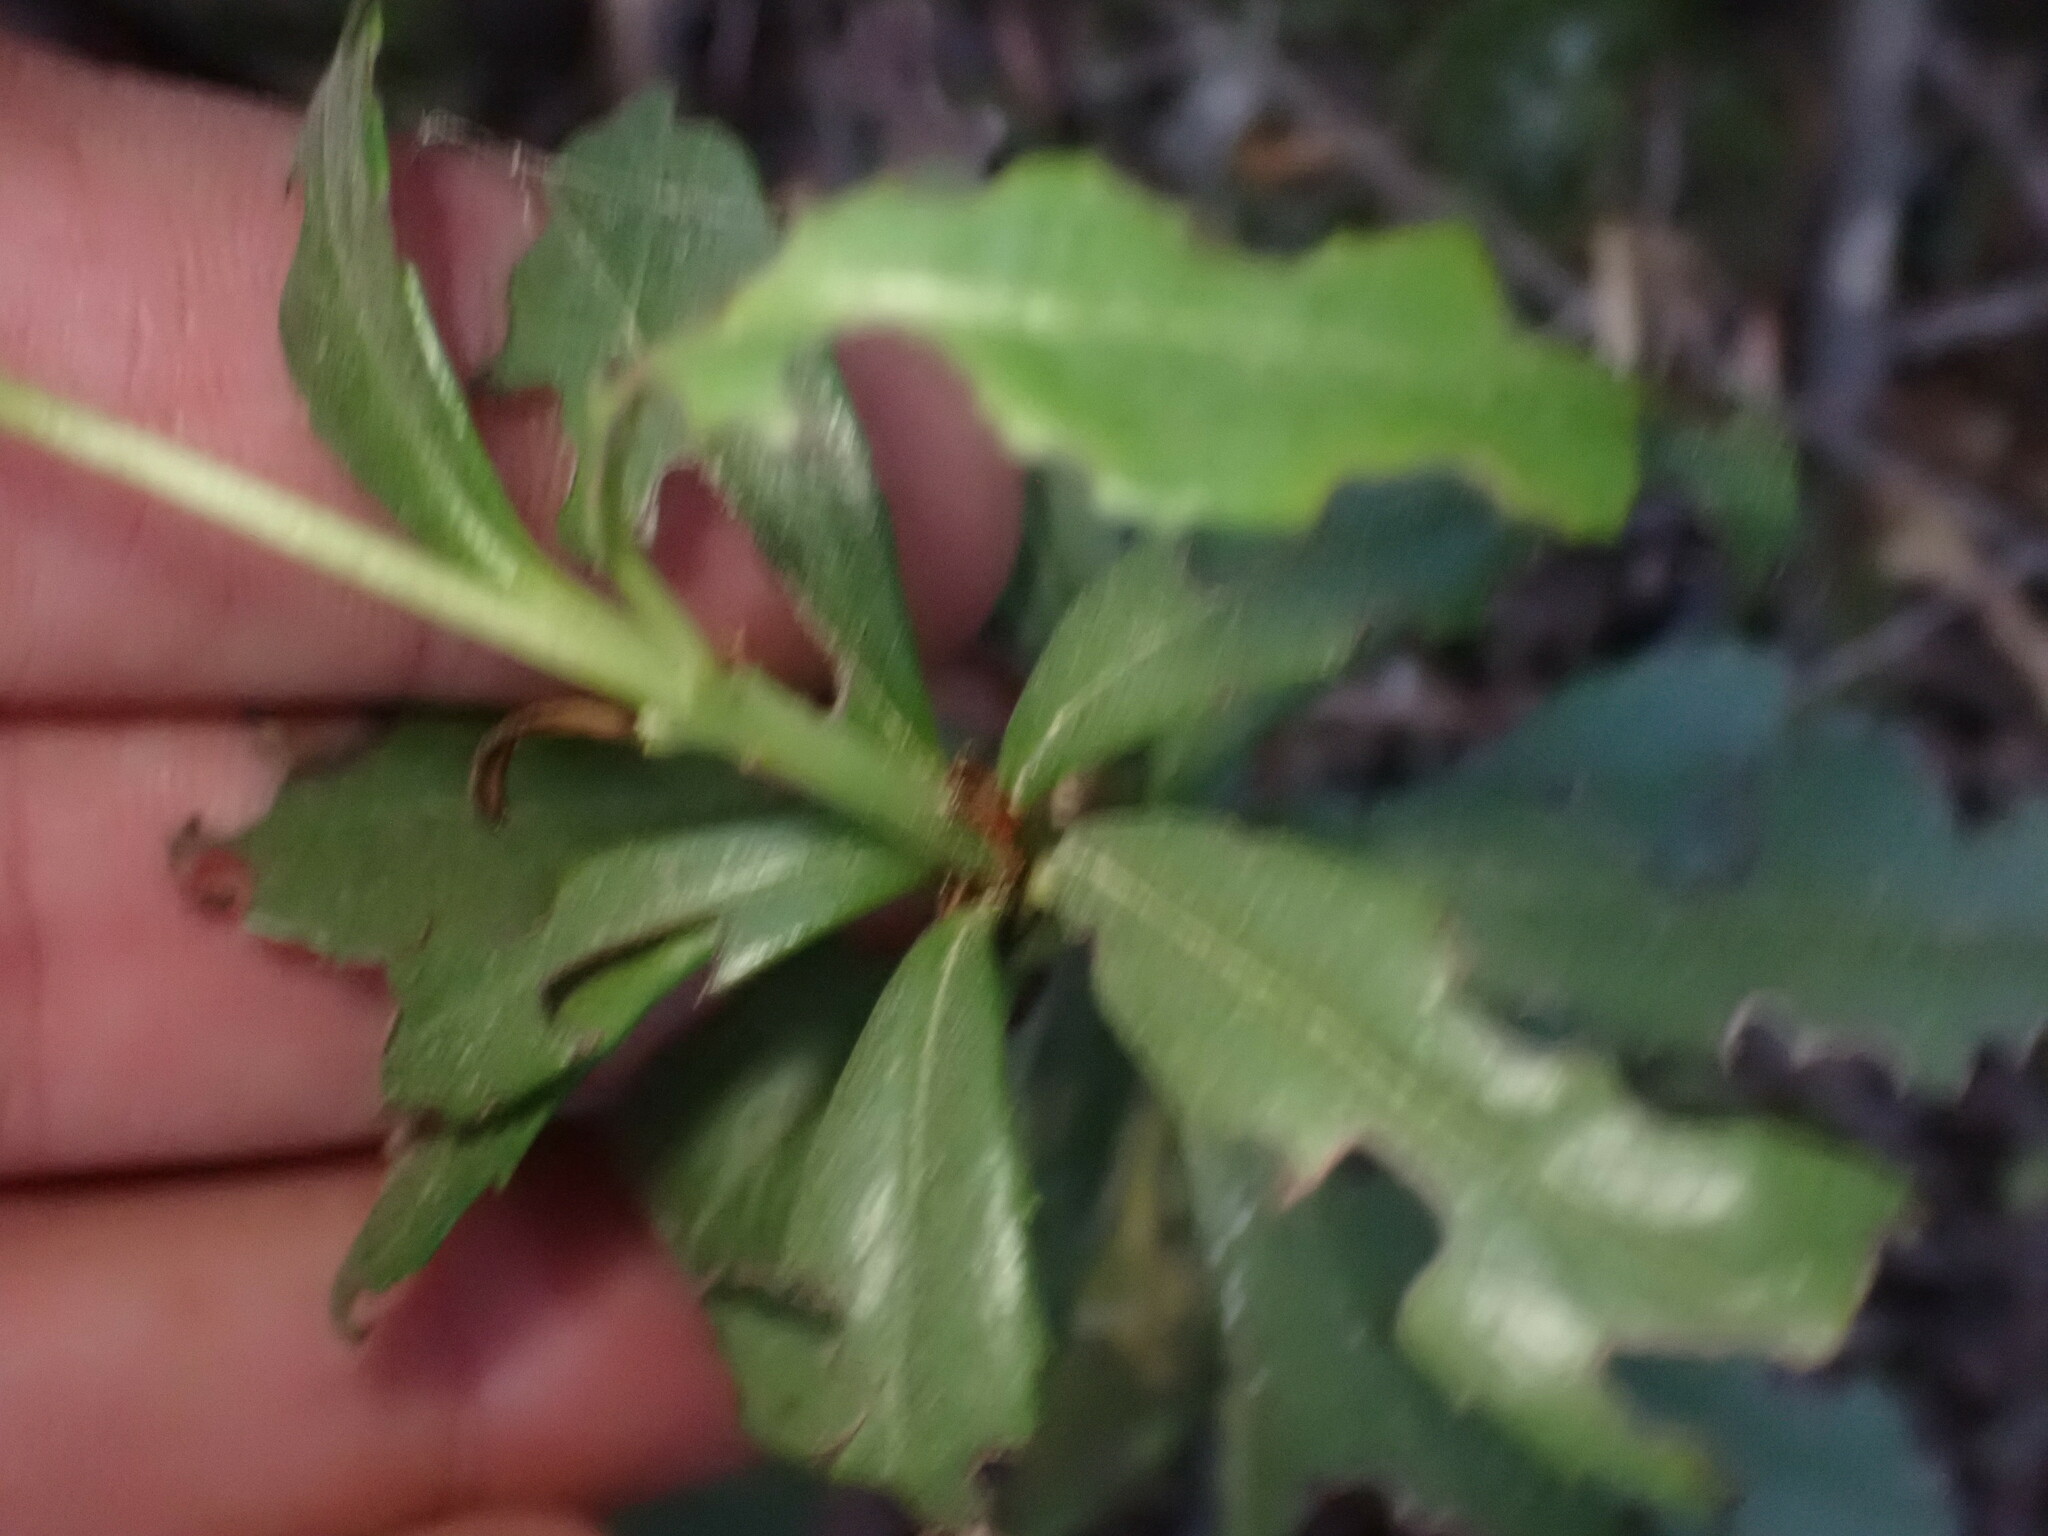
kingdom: Plantae
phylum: Tracheophyta
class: Magnoliopsida
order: Ericales
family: Ericaceae
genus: Chimaphila
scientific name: Chimaphila umbellata
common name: Pipsissewa
